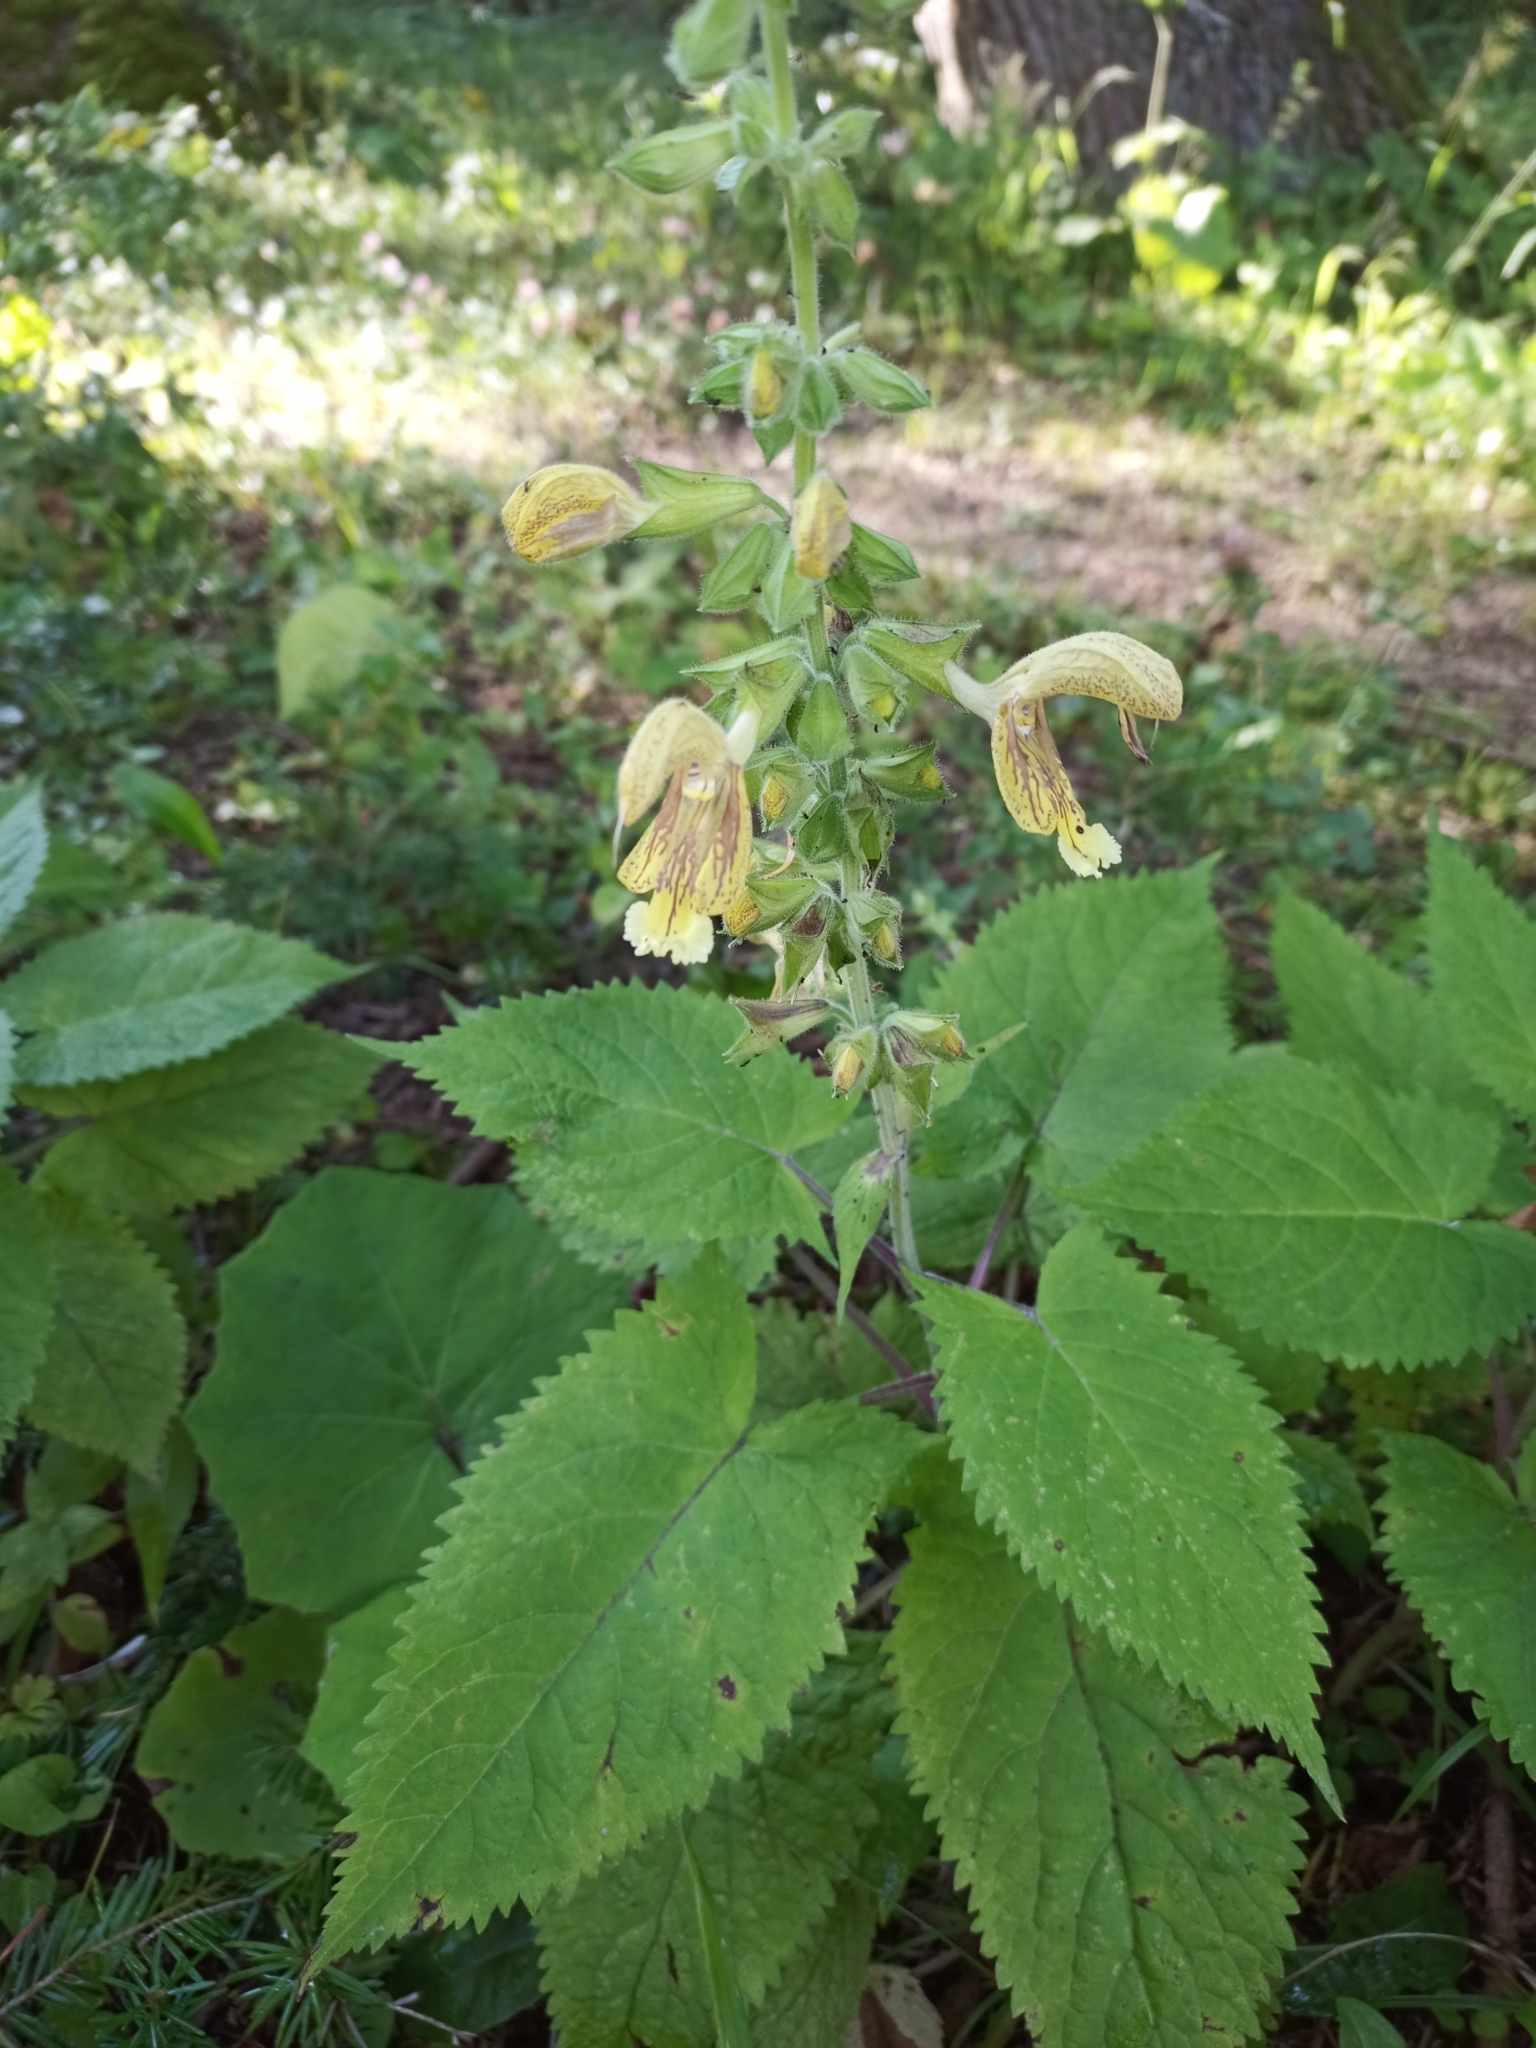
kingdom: Plantae
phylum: Tracheophyta
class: Magnoliopsida
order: Lamiales
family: Lamiaceae
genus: Salvia
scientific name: Salvia glutinosa
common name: Sticky clary
